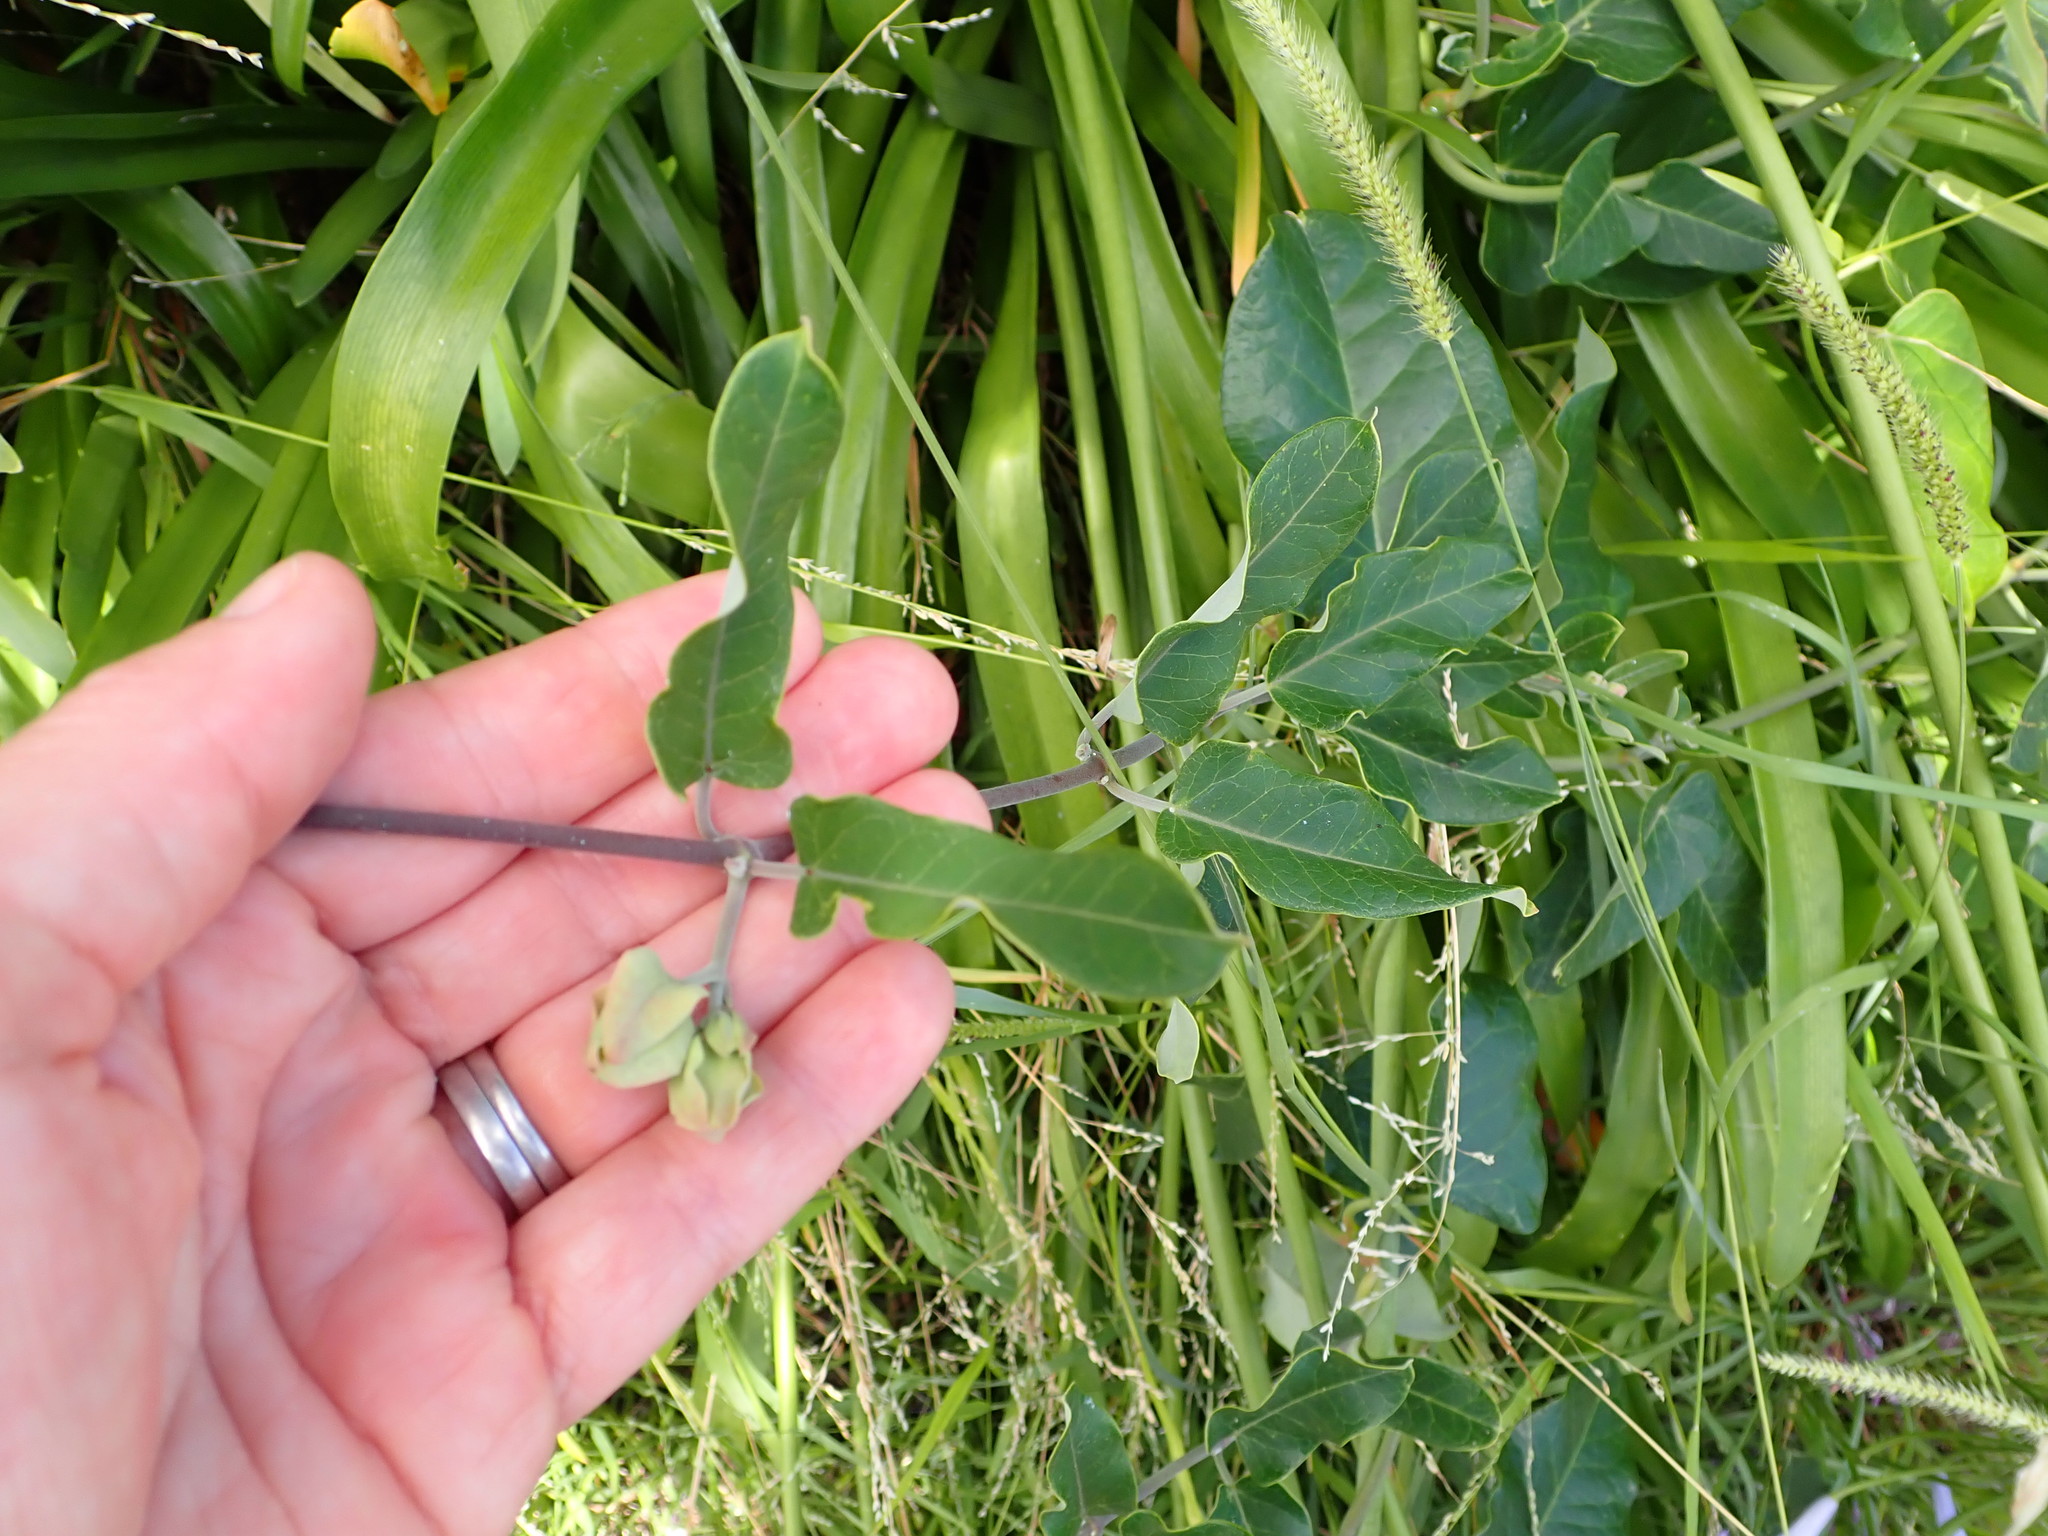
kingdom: Plantae
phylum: Tracheophyta
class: Magnoliopsida
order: Gentianales
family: Apocynaceae
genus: Araujia
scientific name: Araujia sericifera
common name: White bladderflower
